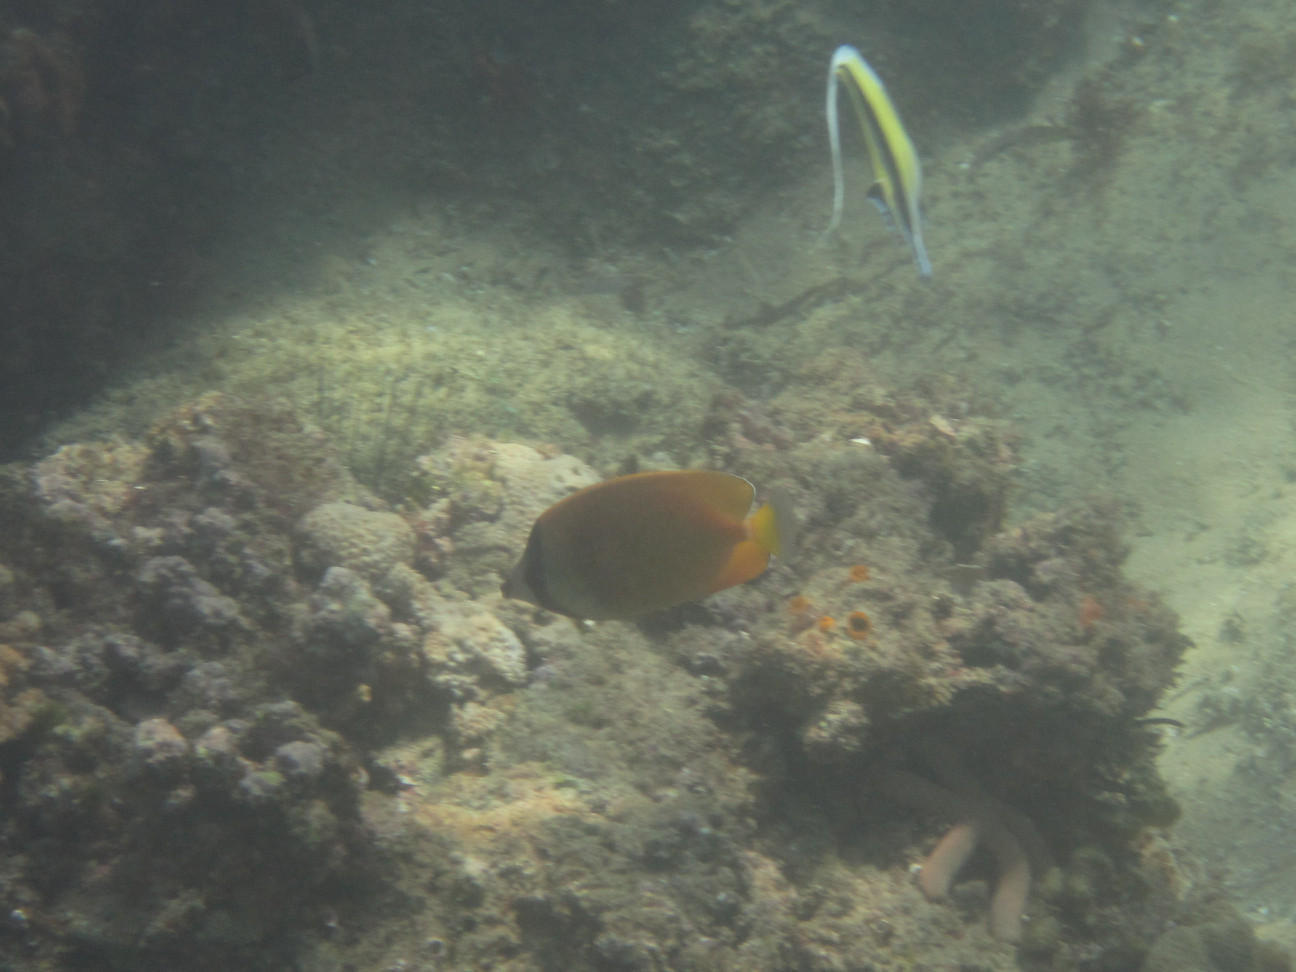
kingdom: Animalia
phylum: Chordata
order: Perciformes
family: Chaetodontidae
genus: Chaetodon
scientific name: Chaetodon kleinii
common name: Klein's butterflyfish
